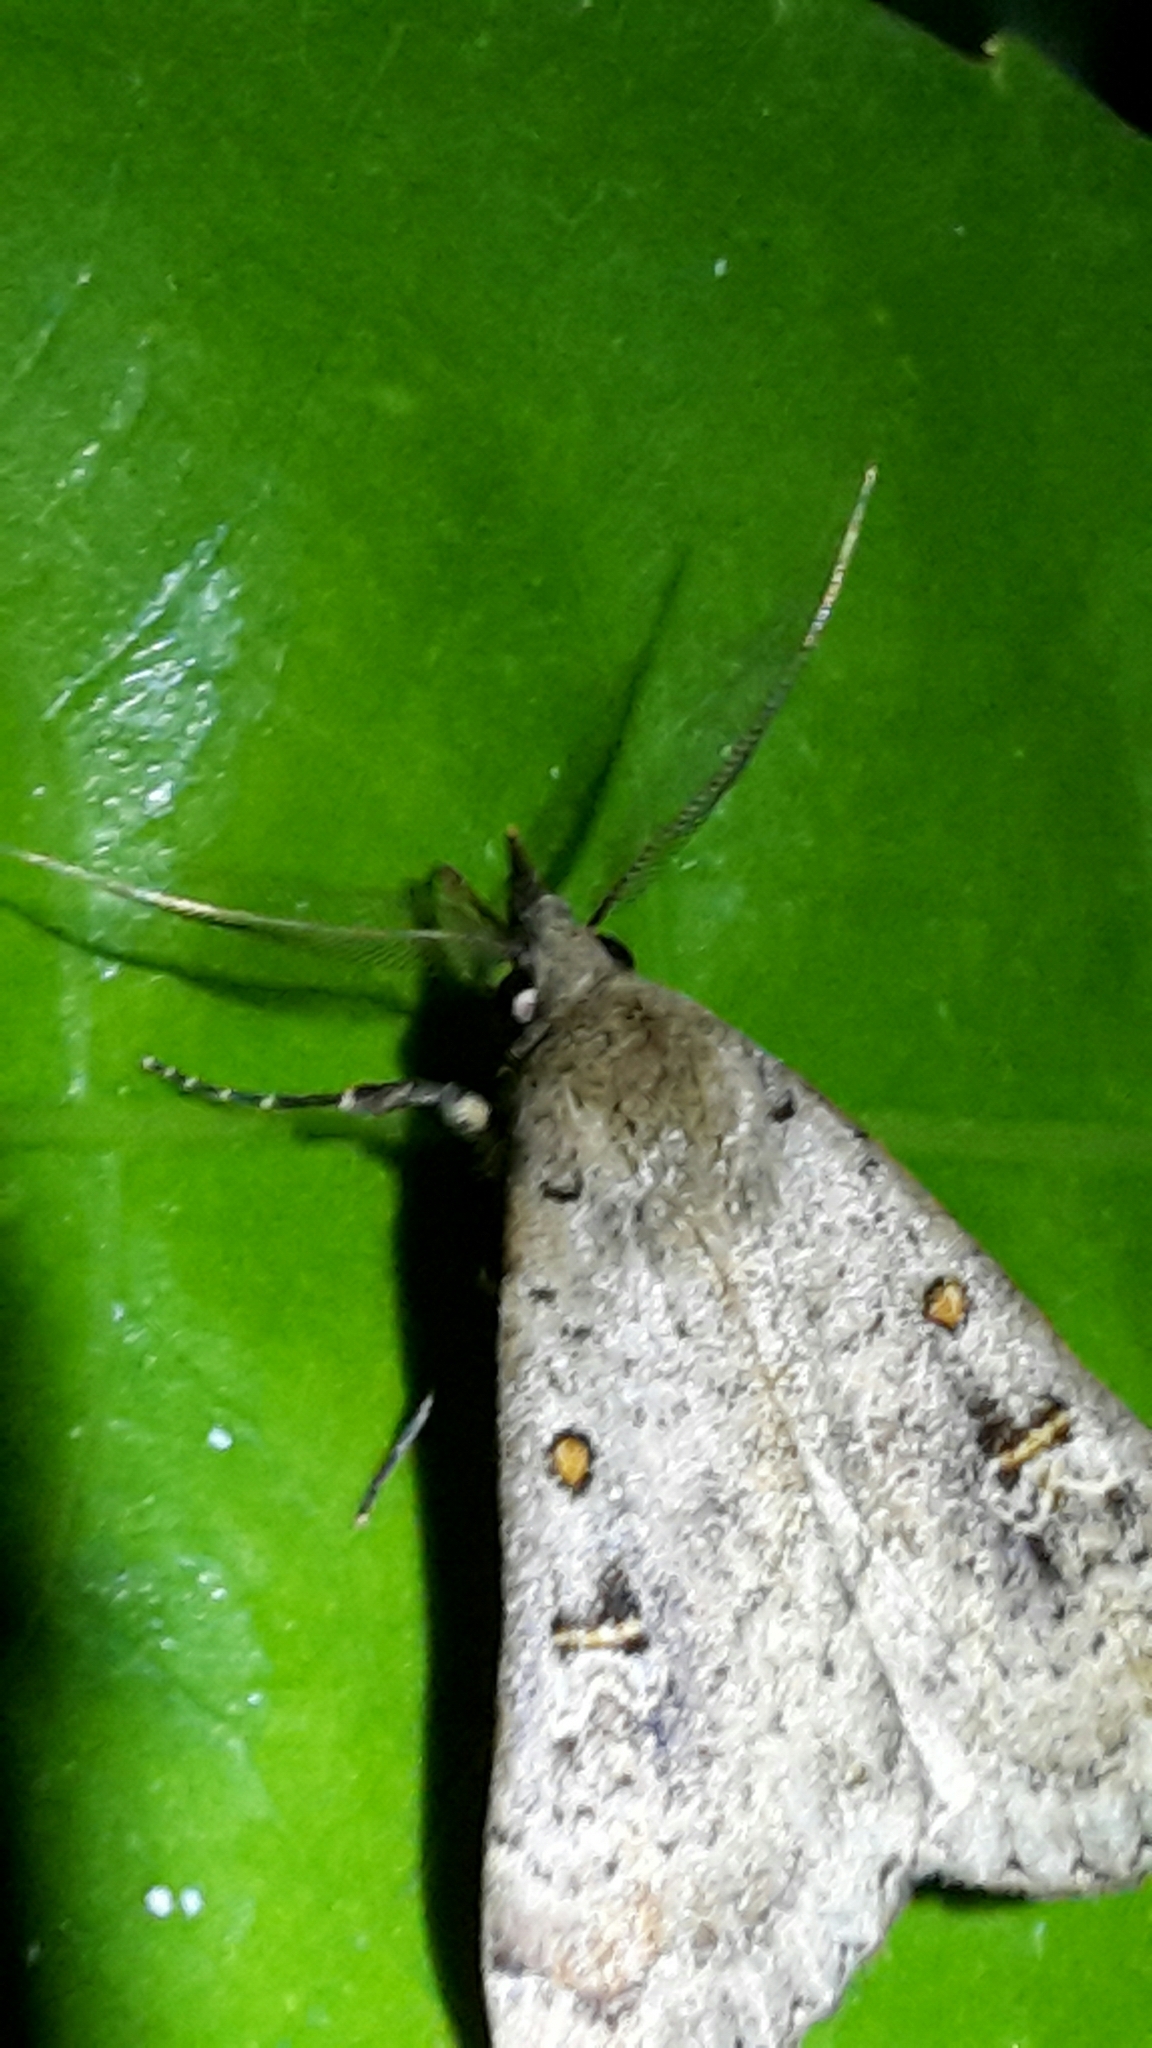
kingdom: Animalia
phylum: Arthropoda
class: Insecta
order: Lepidoptera
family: Erebidae
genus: Rhapsa
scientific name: Rhapsa scotosialis
